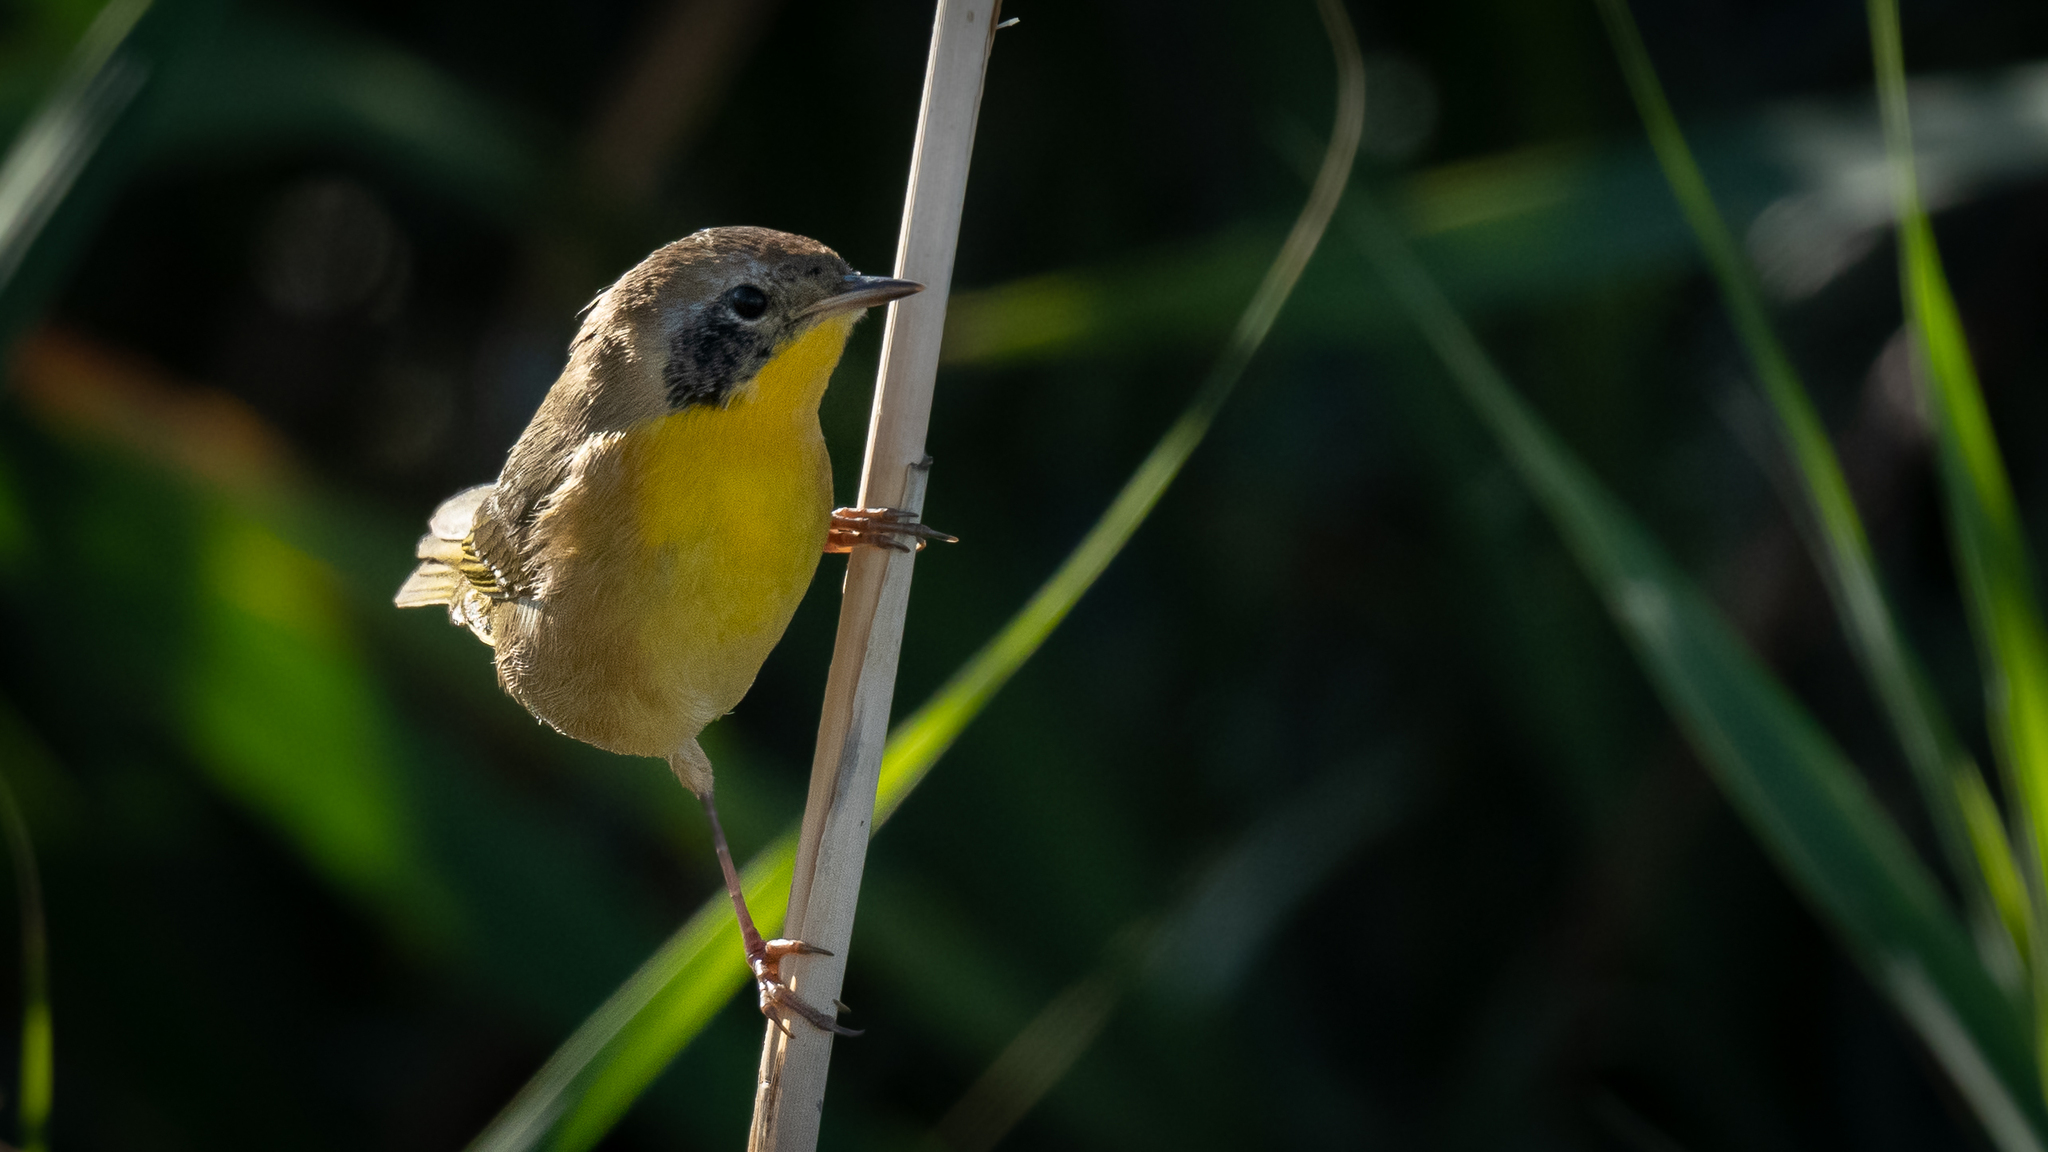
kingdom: Animalia
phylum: Chordata
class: Aves
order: Passeriformes
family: Parulidae
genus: Geothlypis
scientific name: Geothlypis trichas
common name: Common yellowthroat
